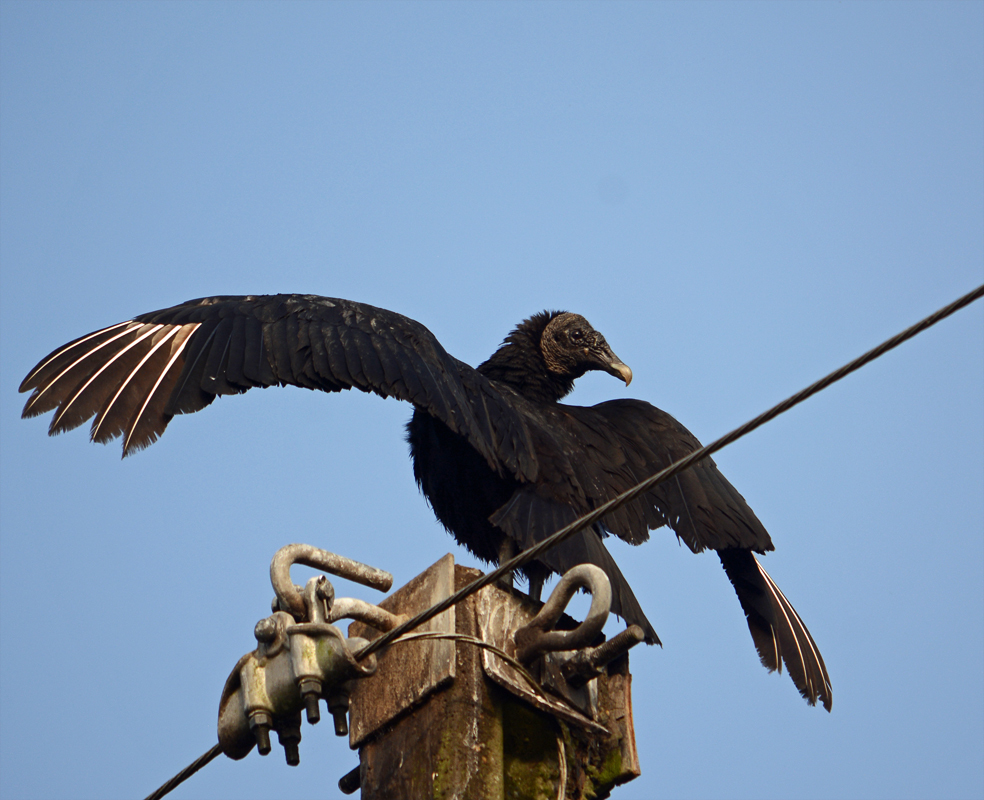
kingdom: Animalia
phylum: Chordata
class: Aves
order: Accipitriformes
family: Cathartidae
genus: Coragyps
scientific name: Coragyps atratus
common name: Black vulture
